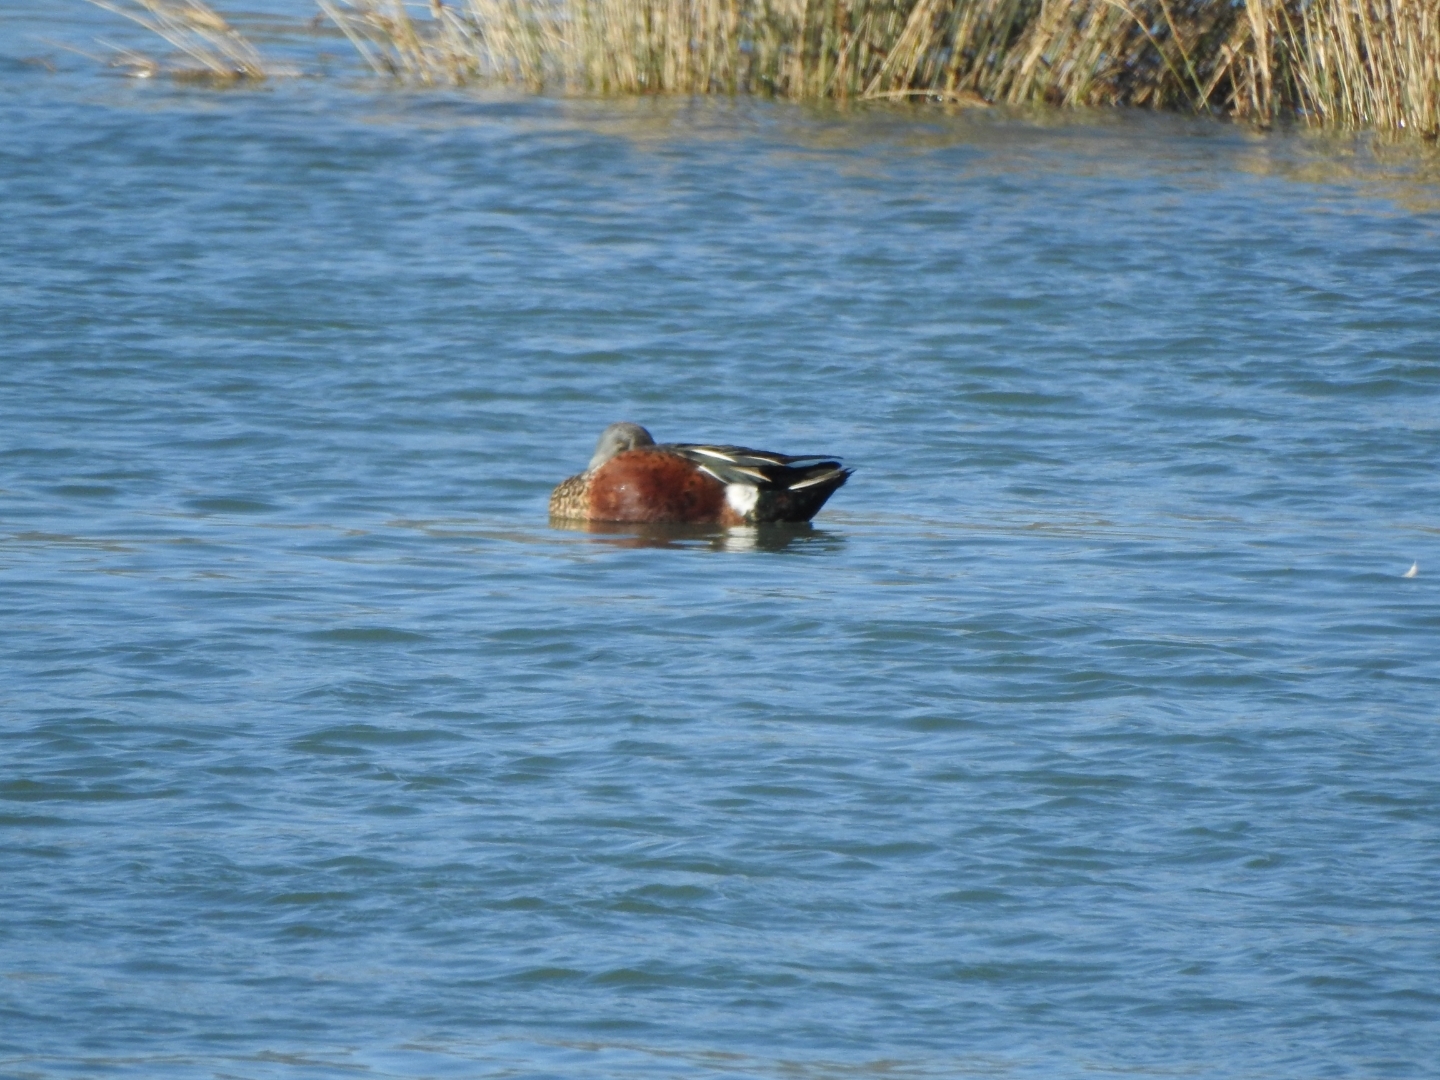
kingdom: Animalia
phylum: Chordata
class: Aves
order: Anseriformes
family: Anatidae
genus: Spatula
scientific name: Spatula rhynchotis
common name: Australian shoveler
